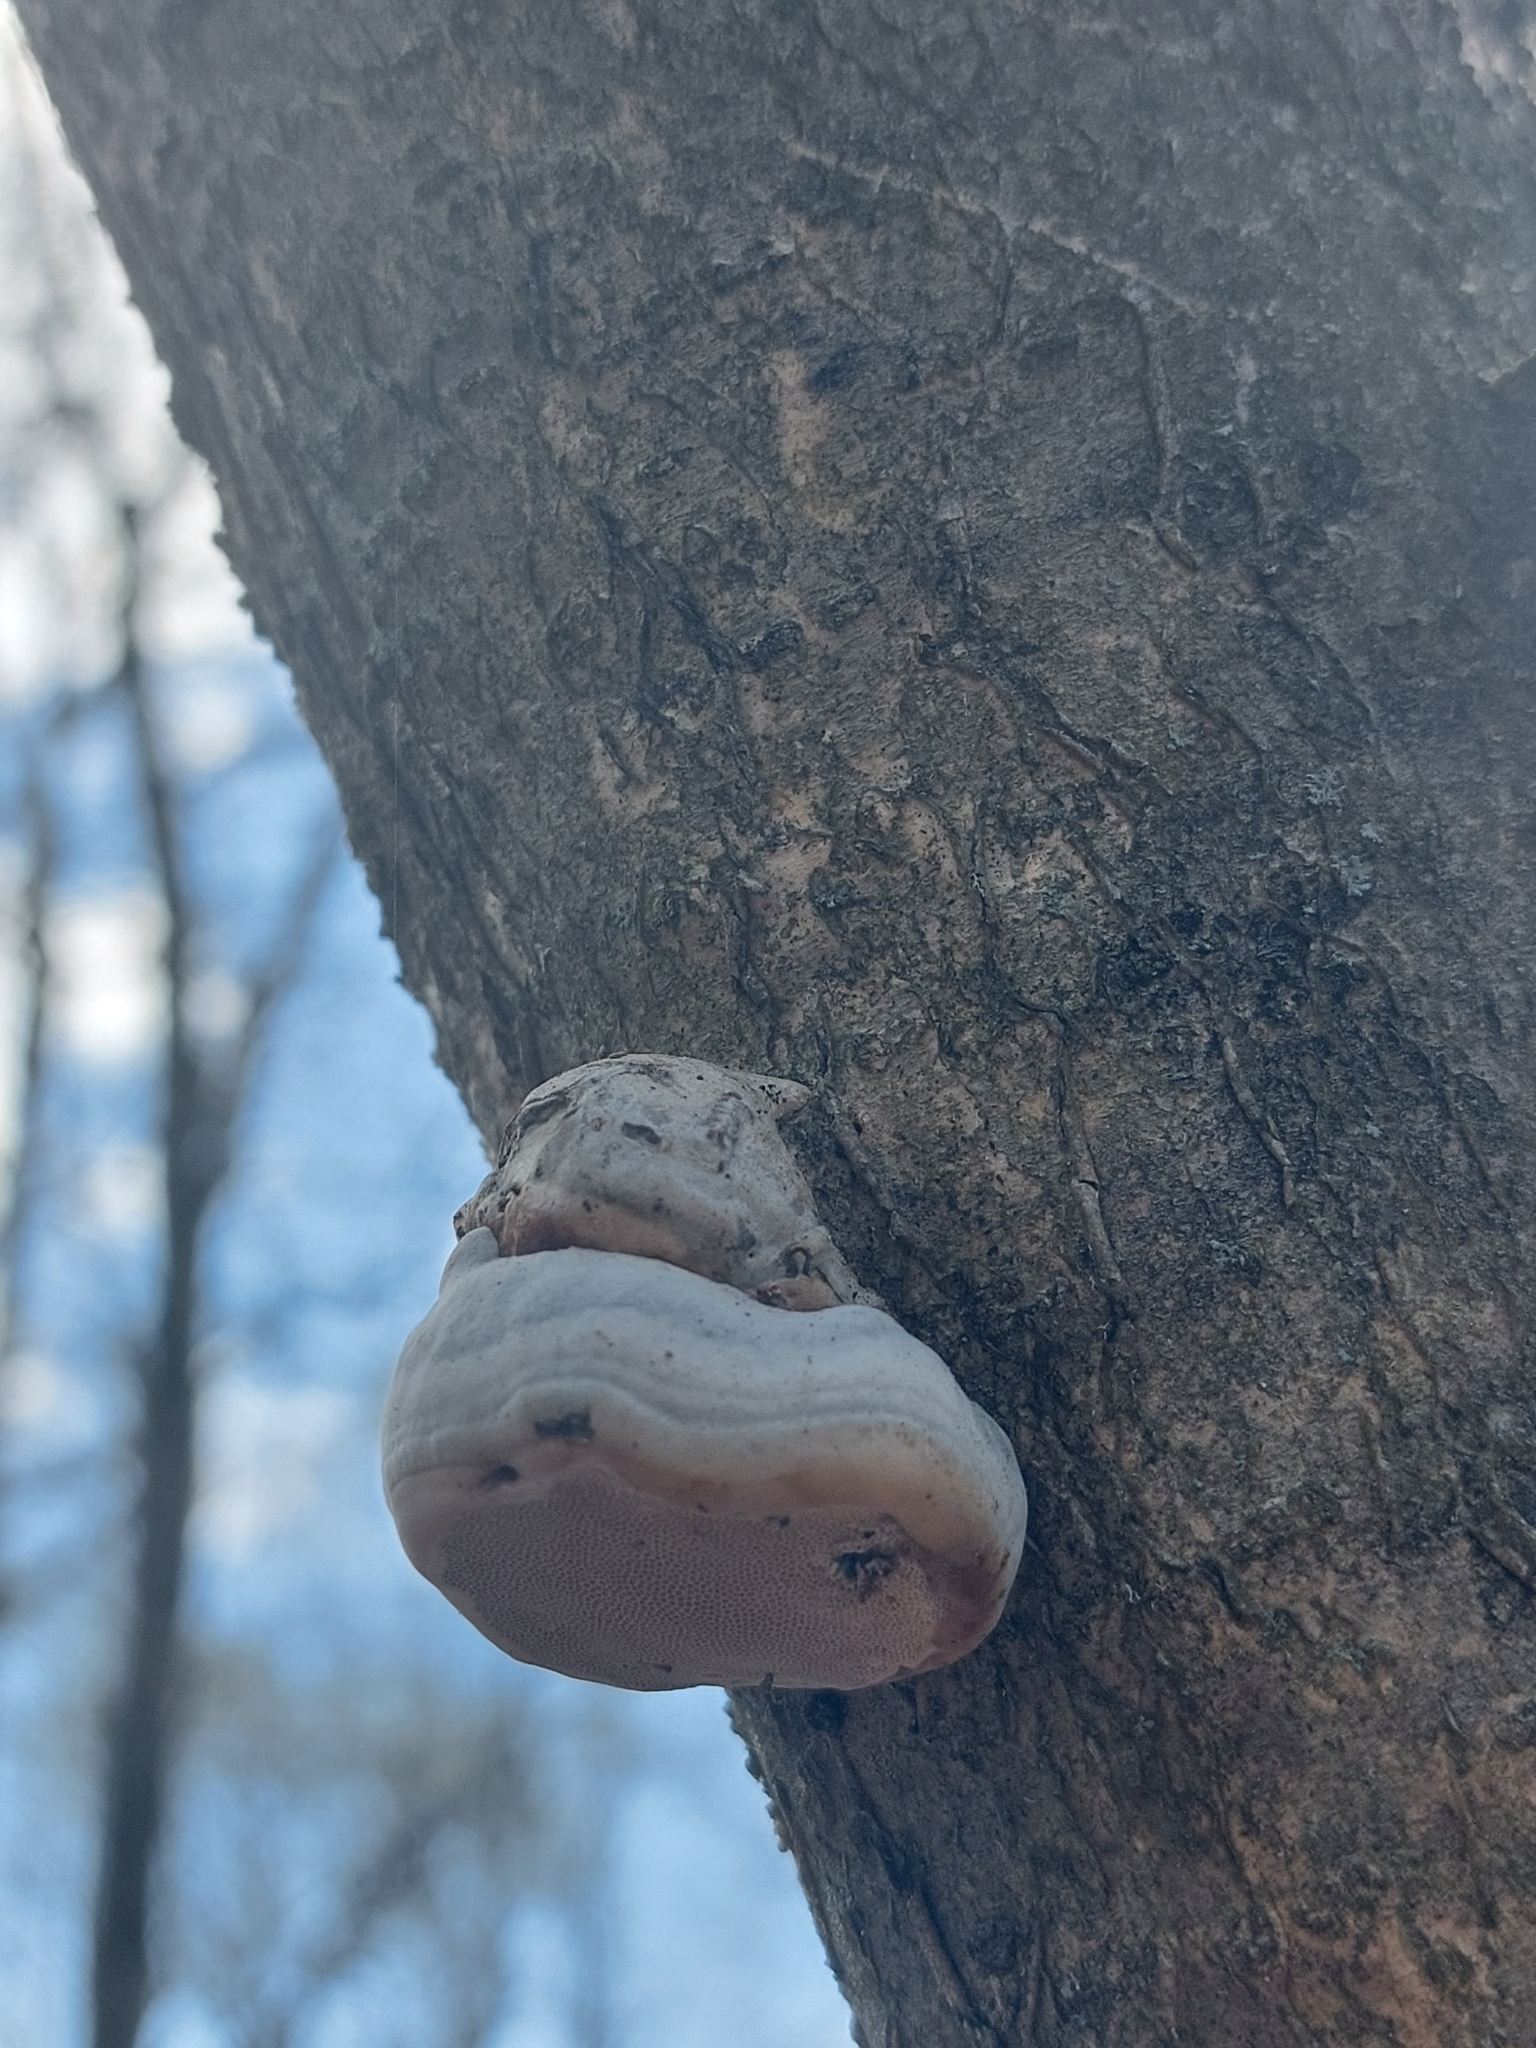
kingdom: Fungi
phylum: Basidiomycota
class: Agaricomycetes
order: Polyporales
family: Polyporaceae
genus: Fomes
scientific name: Fomes fomentarius
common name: Hoof fungus
